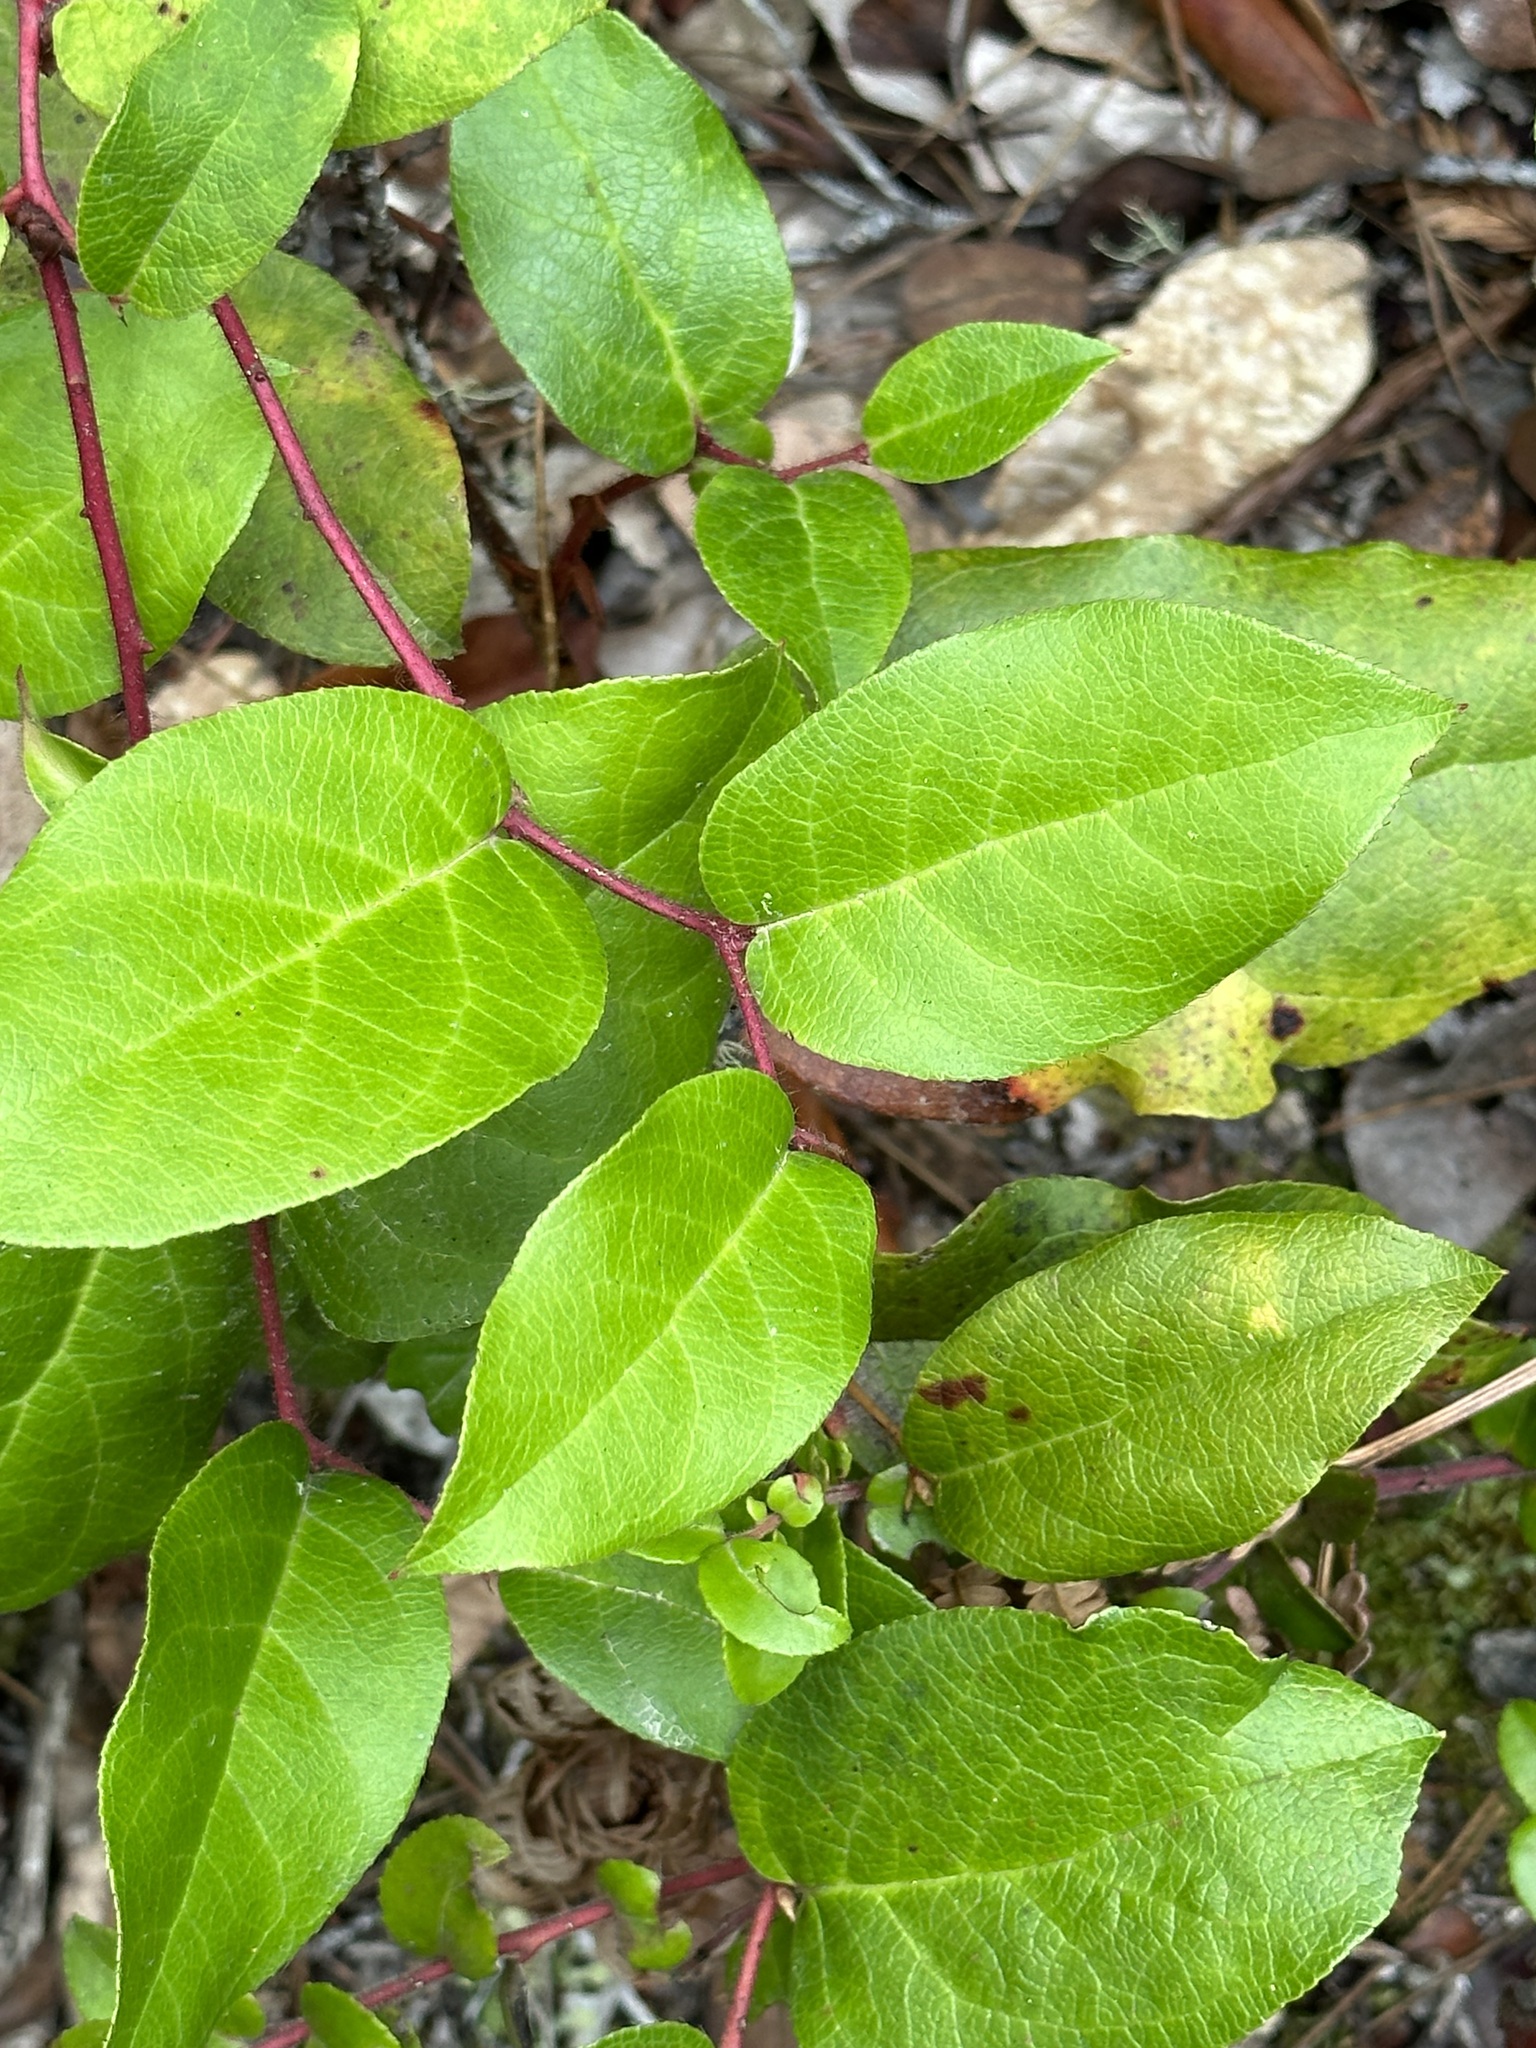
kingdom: Plantae
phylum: Tracheophyta
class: Magnoliopsida
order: Ericales
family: Ericaceae
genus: Gaultheria
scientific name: Gaultheria shallon
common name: Shallon
